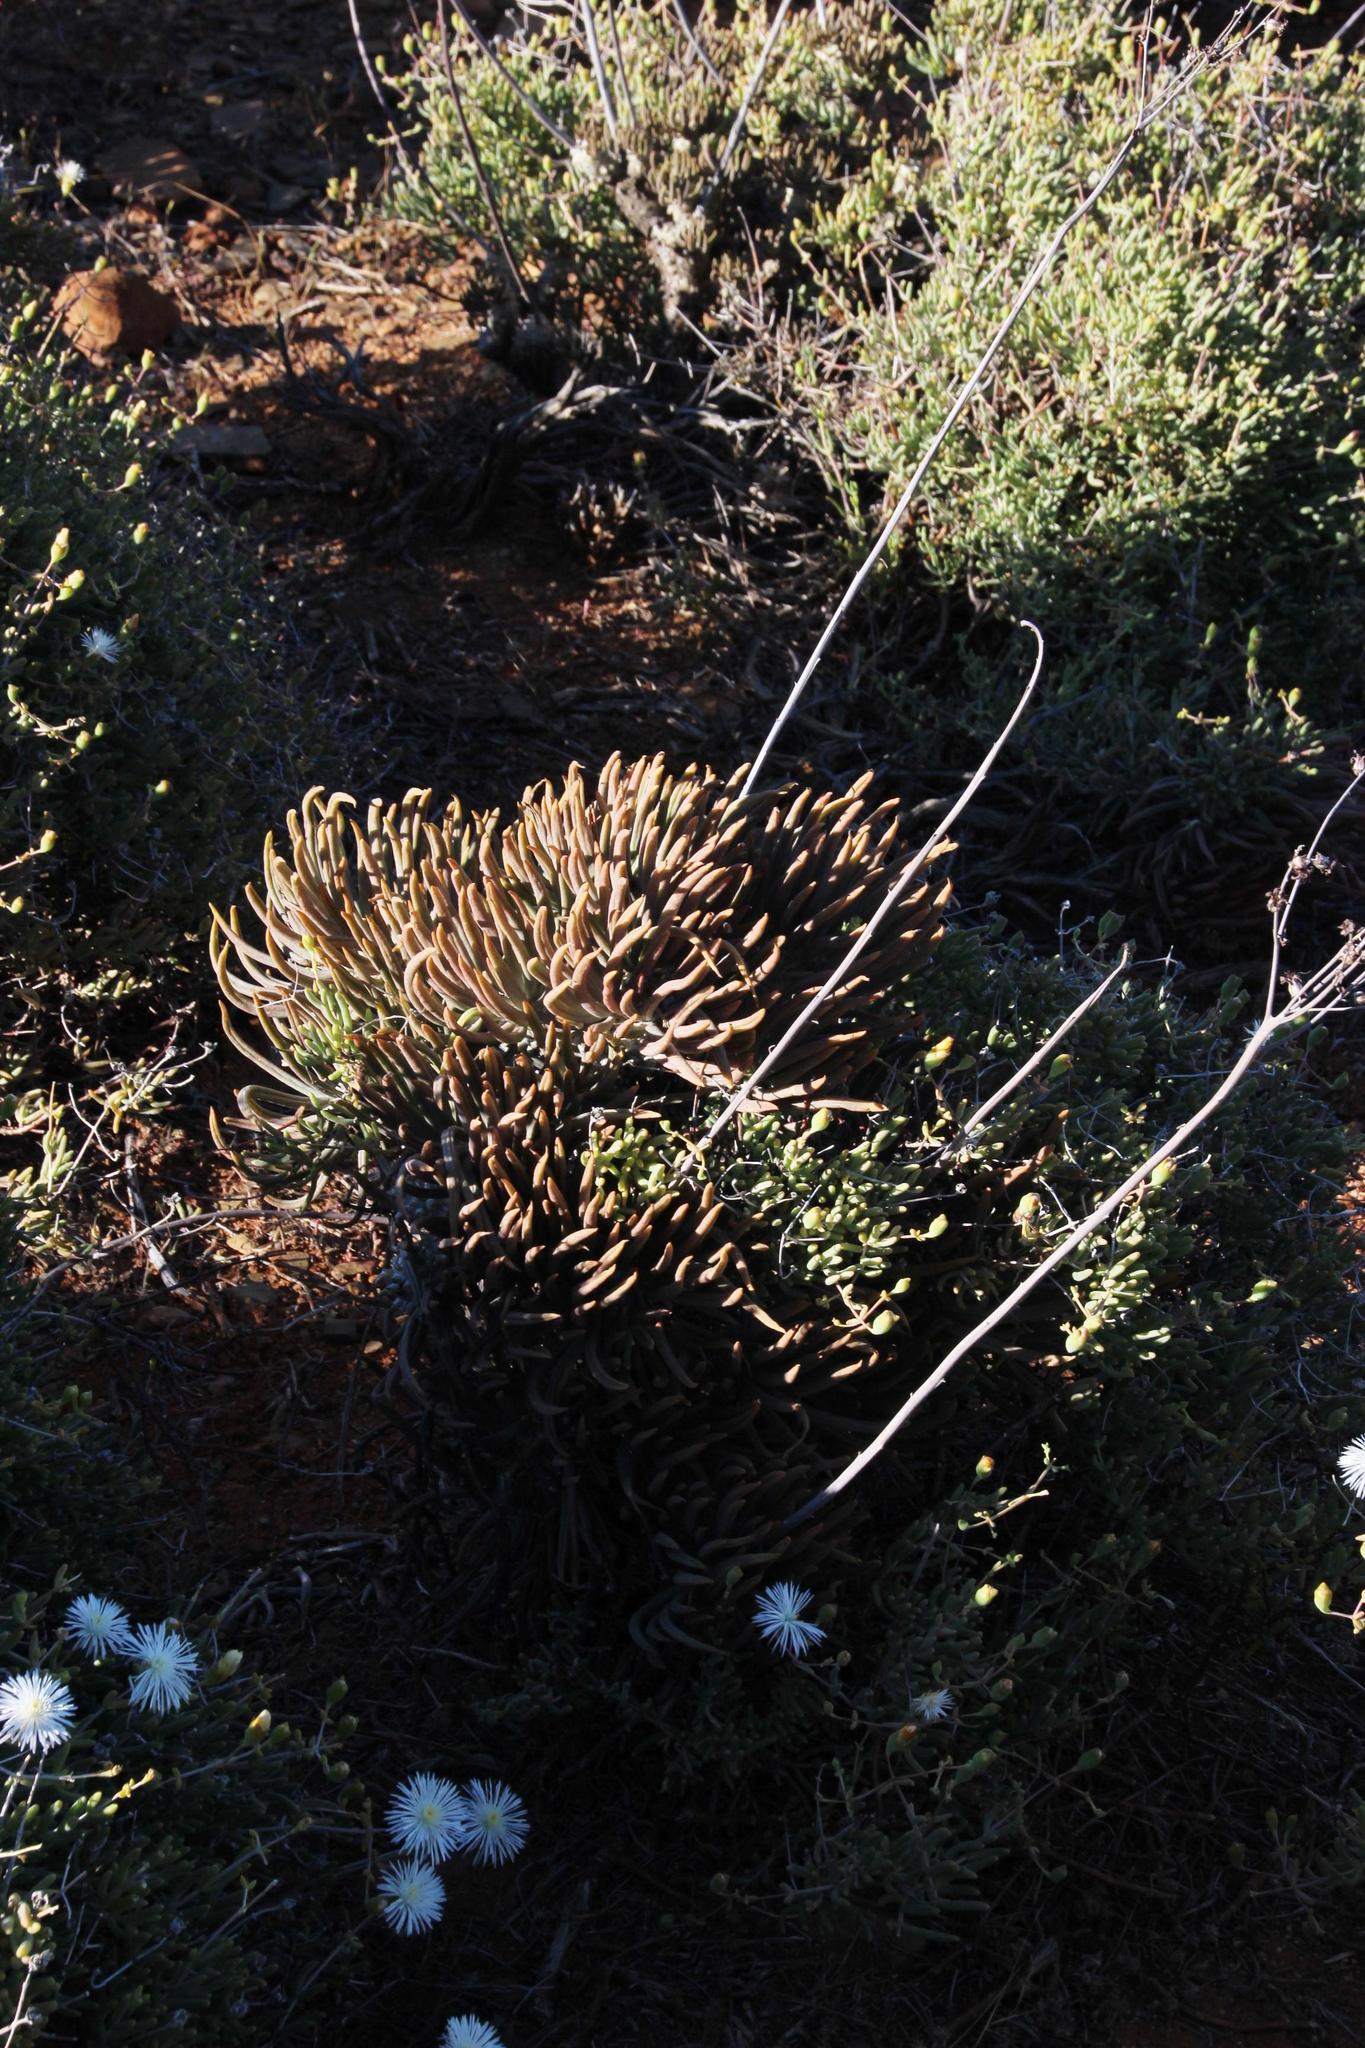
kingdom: Plantae
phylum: Tracheophyta
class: Magnoliopsida
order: Saxifragales
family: Crassulaceae
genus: Tylecodon
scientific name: Tylecodon wallichii
